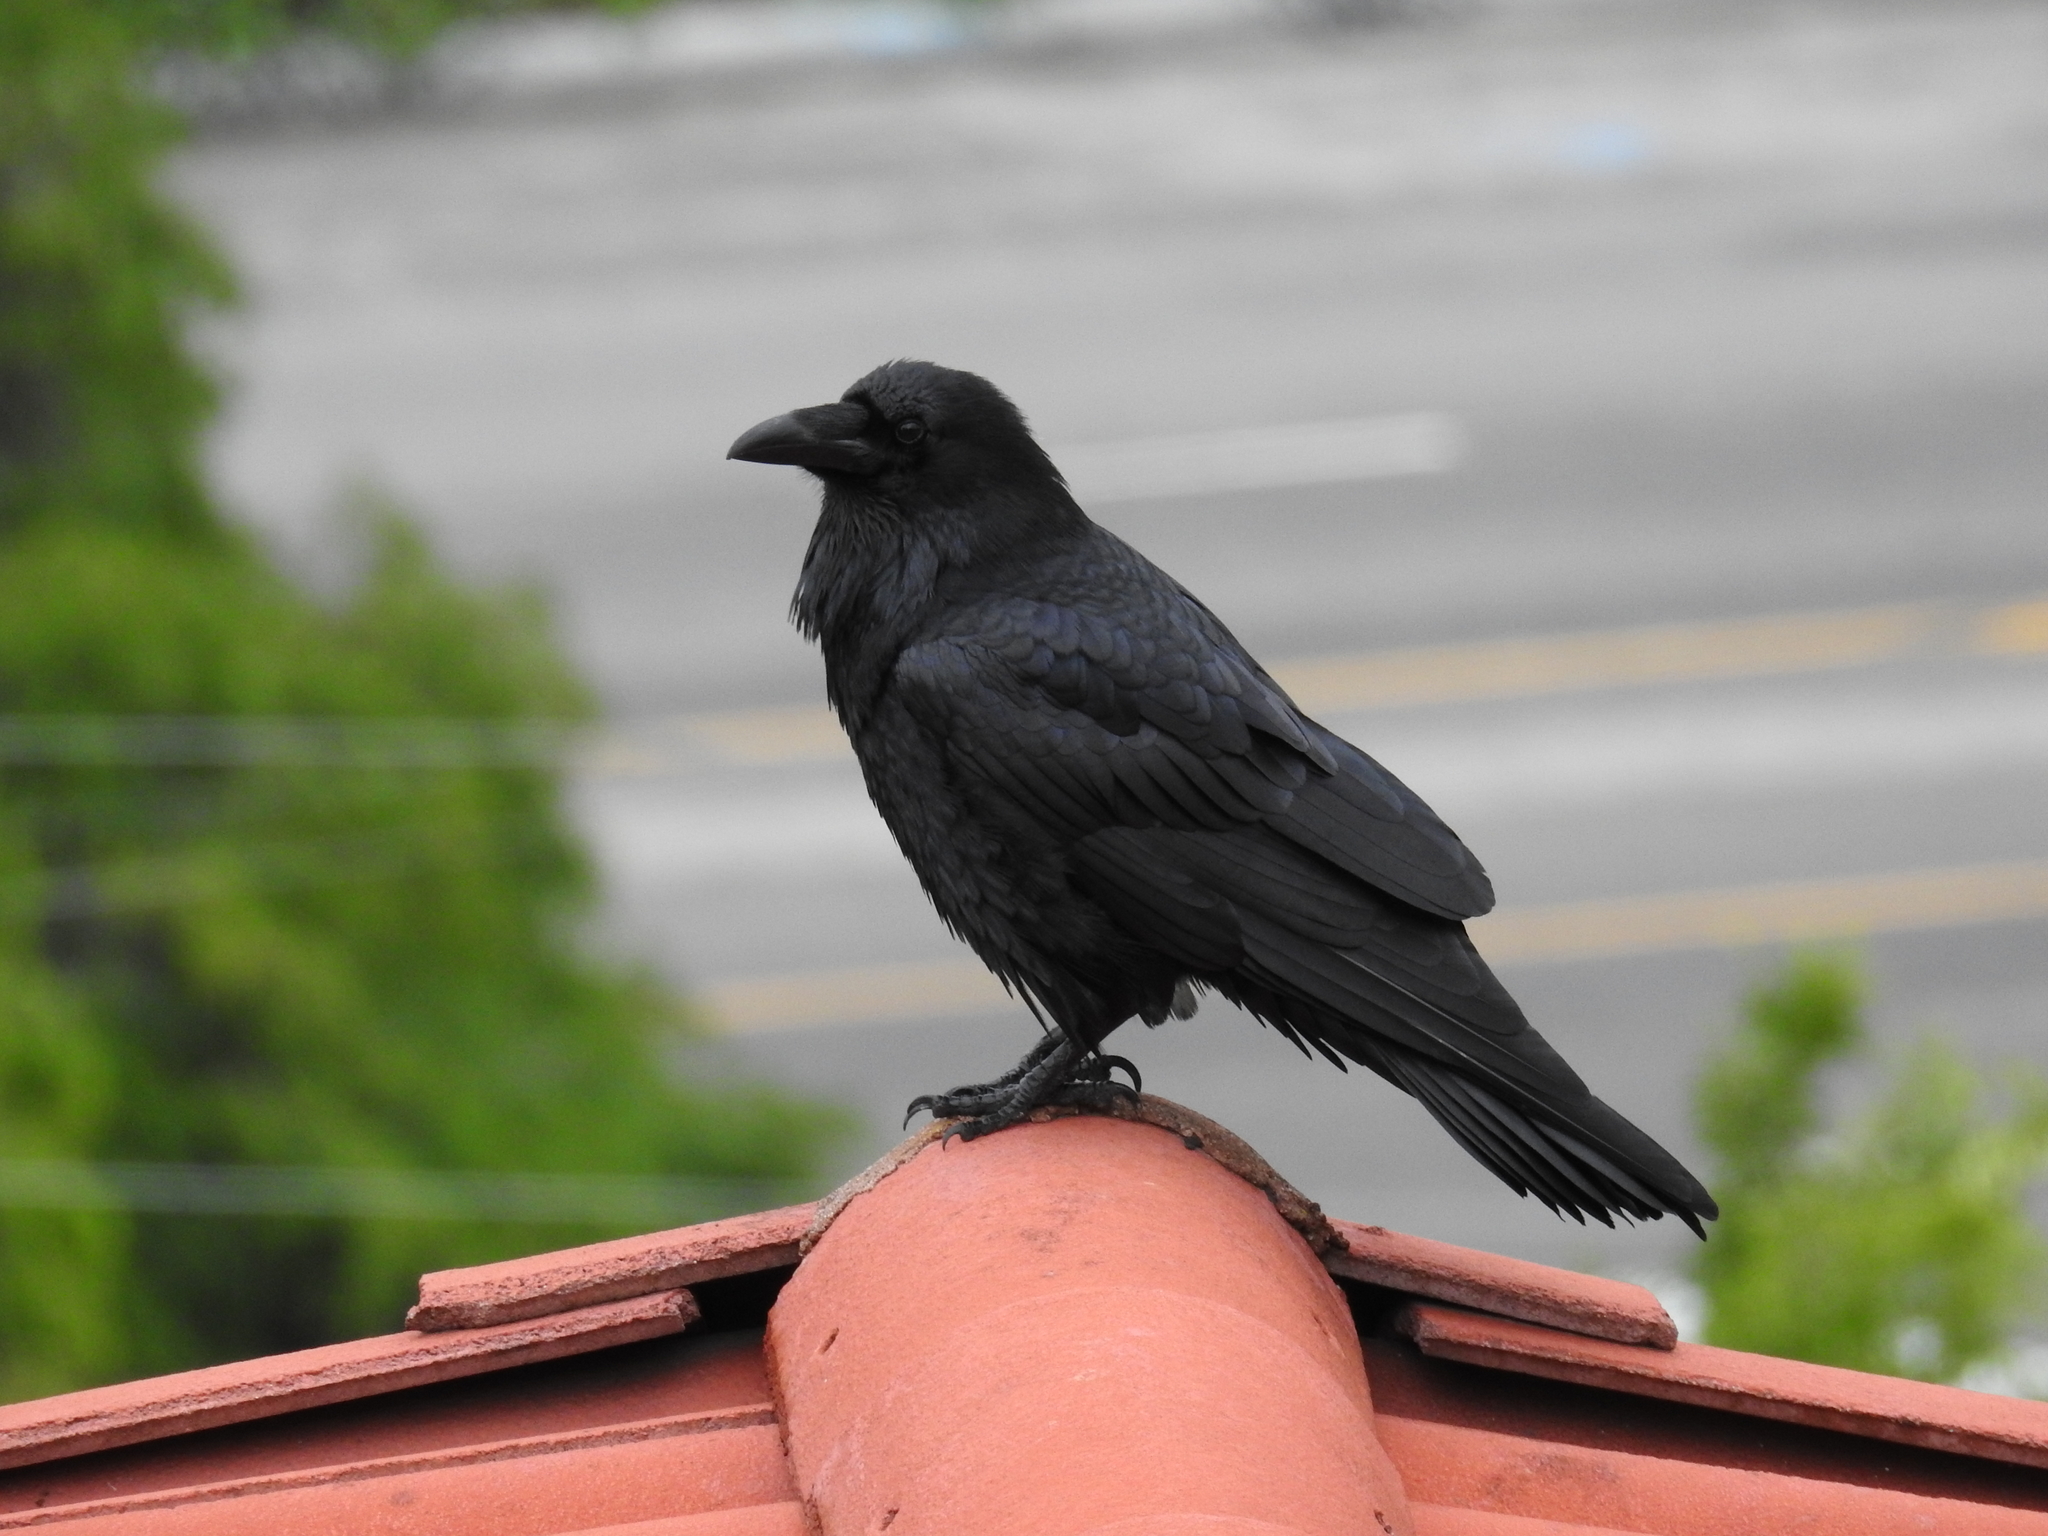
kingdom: Animalia
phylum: Chordata
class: Aves
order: Passeriformes
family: Corvidae
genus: Corvus
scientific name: Corvus corax
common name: Common raven
